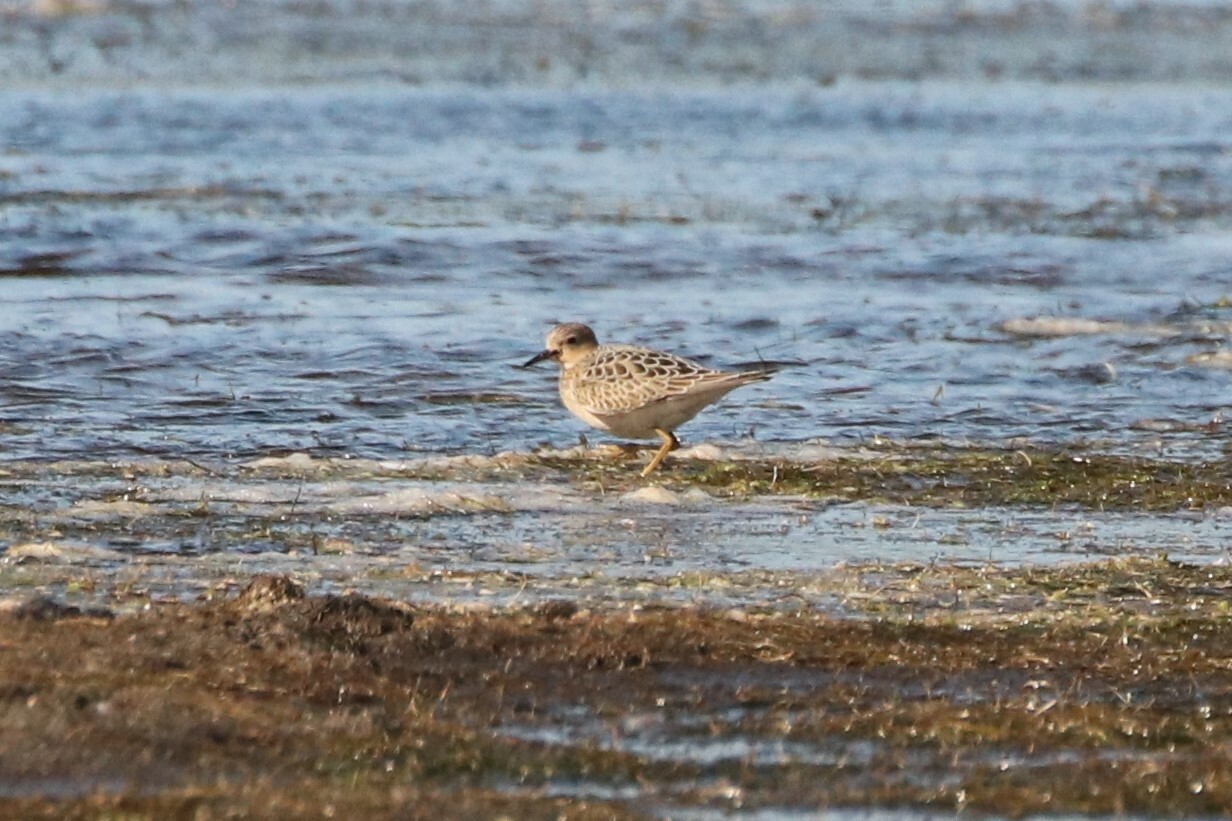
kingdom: Animalia
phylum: Chordata
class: Aves
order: Charadriiformes
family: Scolopacidae
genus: Calidris
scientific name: Calidris subruficollis
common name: Buff-breasted sandpiper
